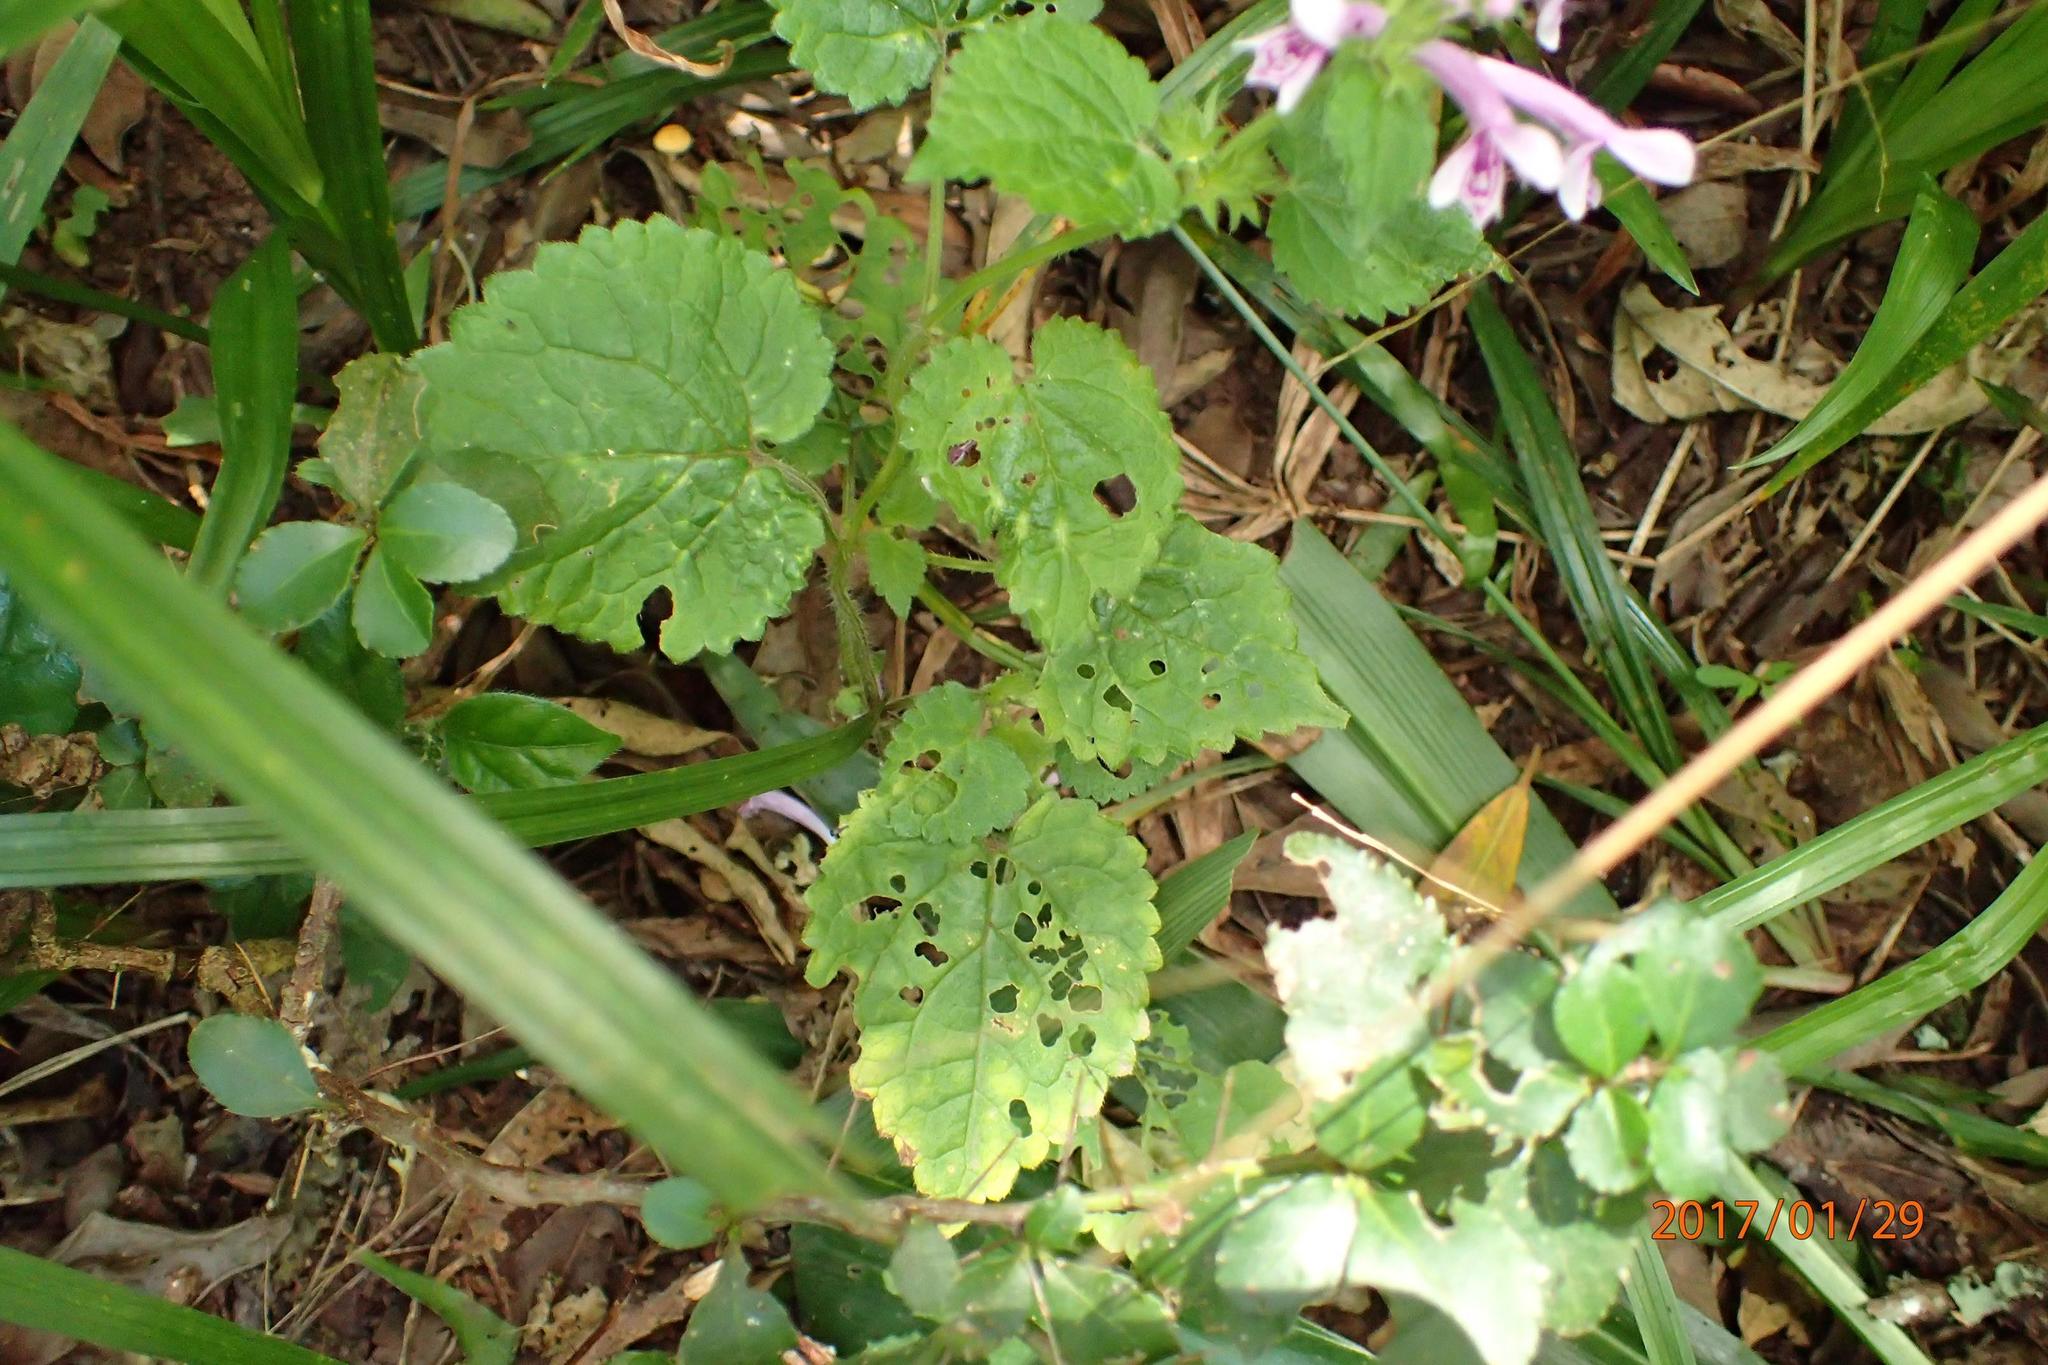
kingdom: Plantae
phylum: Tracheophyta
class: Magnoliopsida
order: Lamiales
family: Lamiaceae
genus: Stachys
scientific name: Stachys tubulosa
